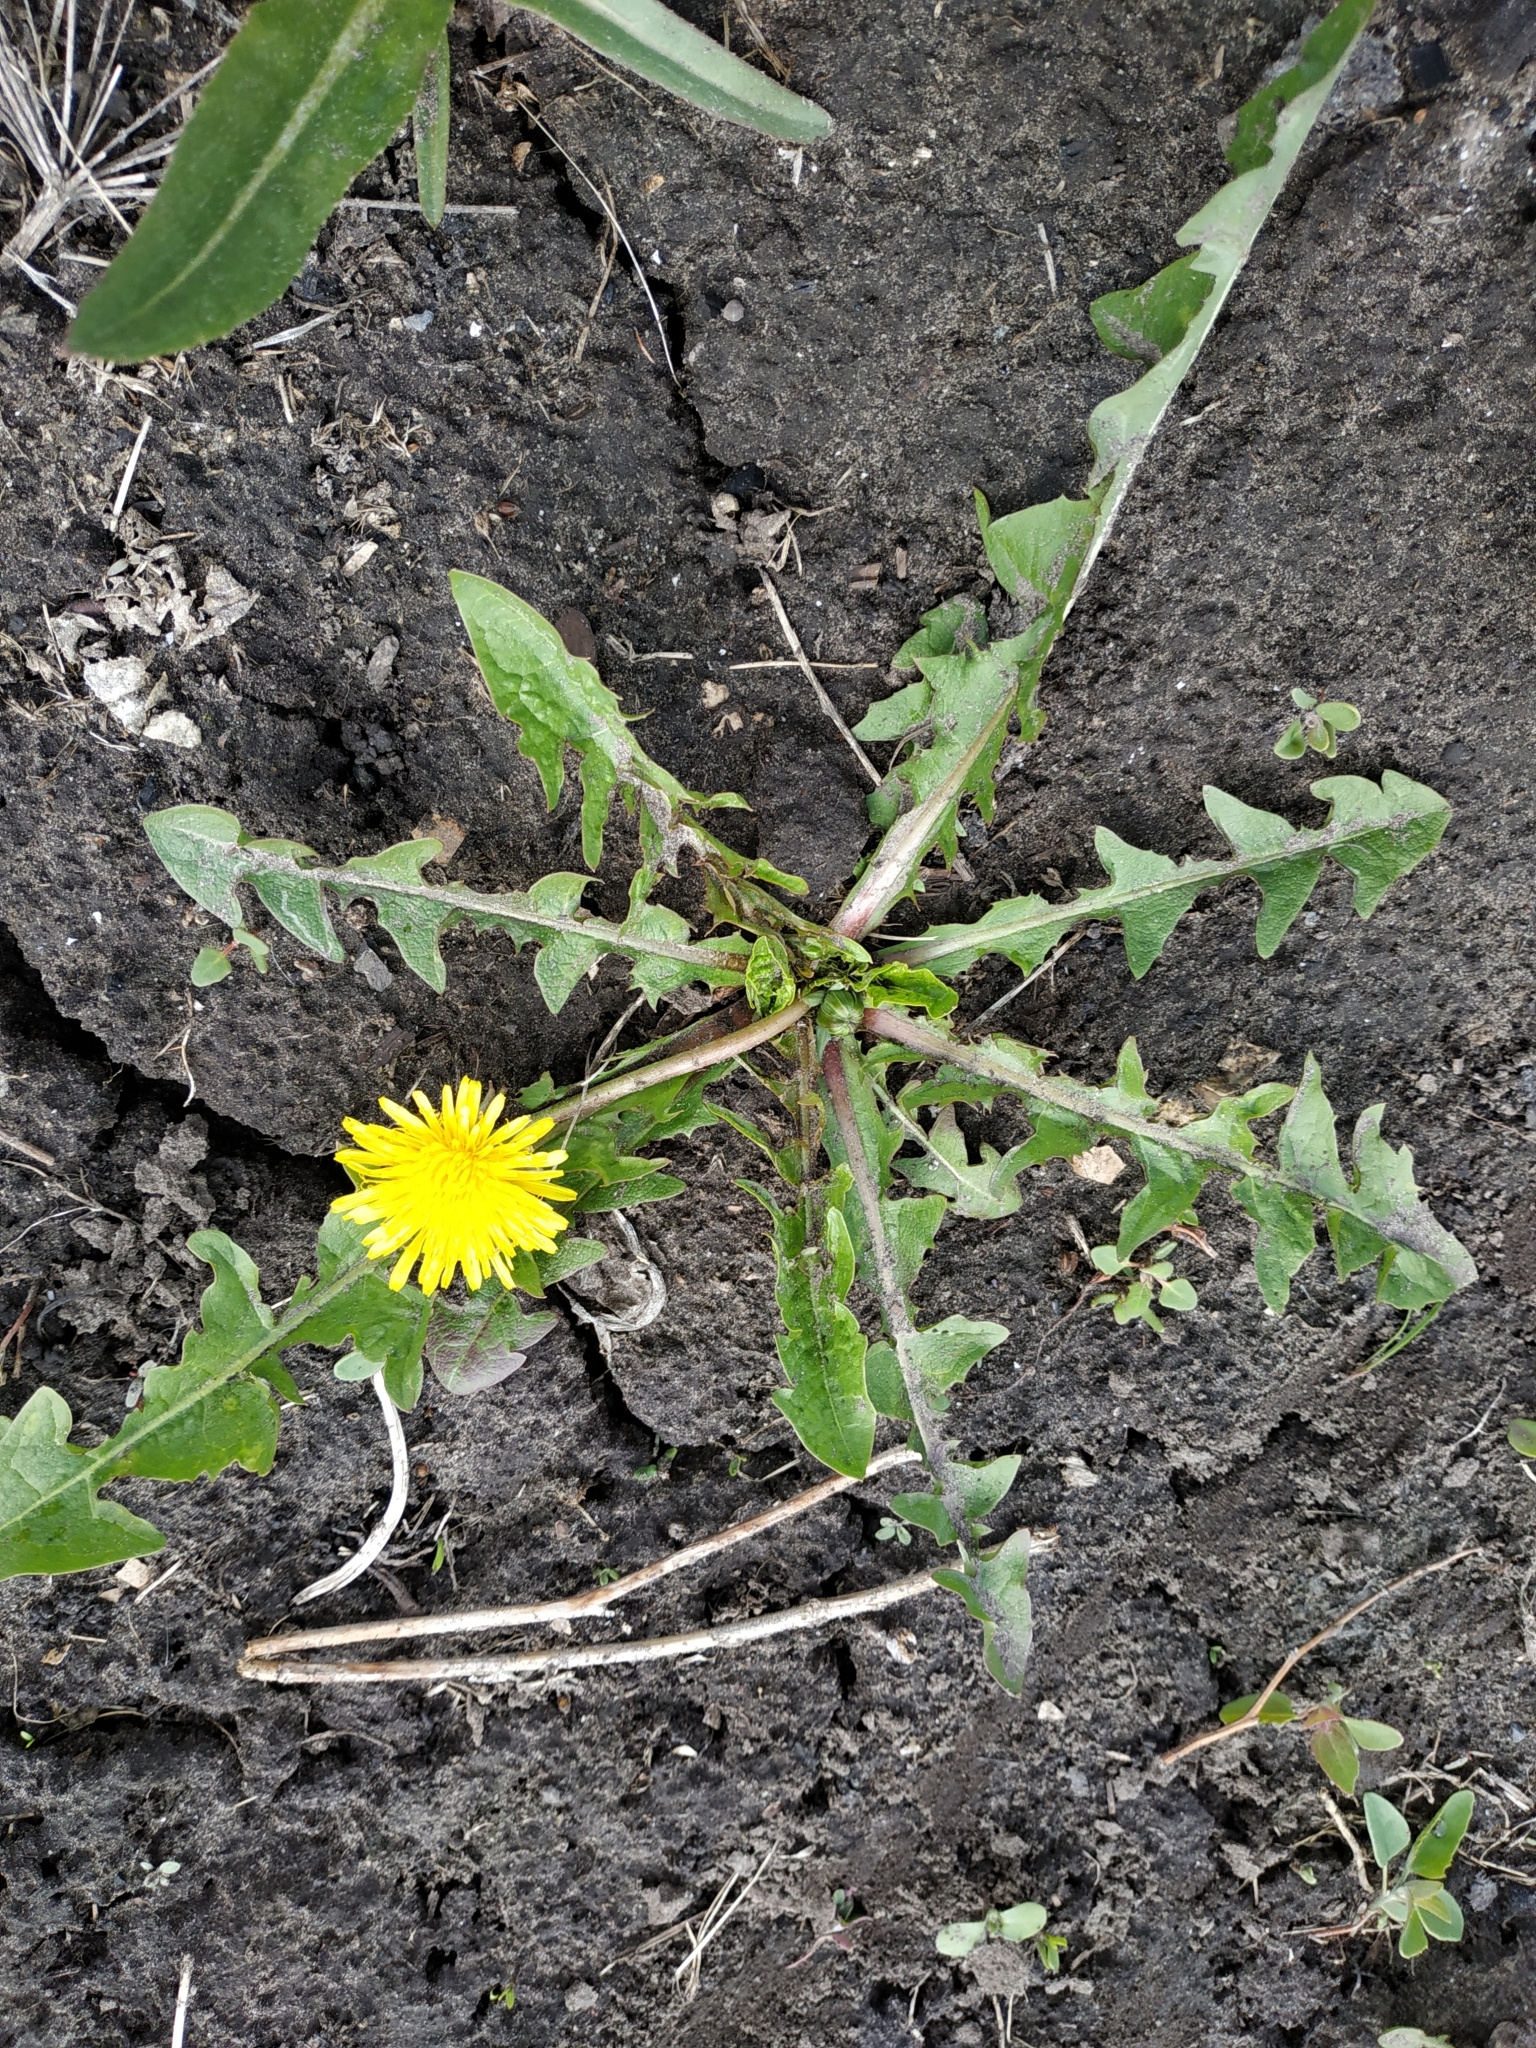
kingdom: Plantae
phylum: Tracheophyta
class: Magnoliopsida
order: Asterales
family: Asteraceae
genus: Taraxacum
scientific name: Taraxacum officinale
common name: Common dandelion
